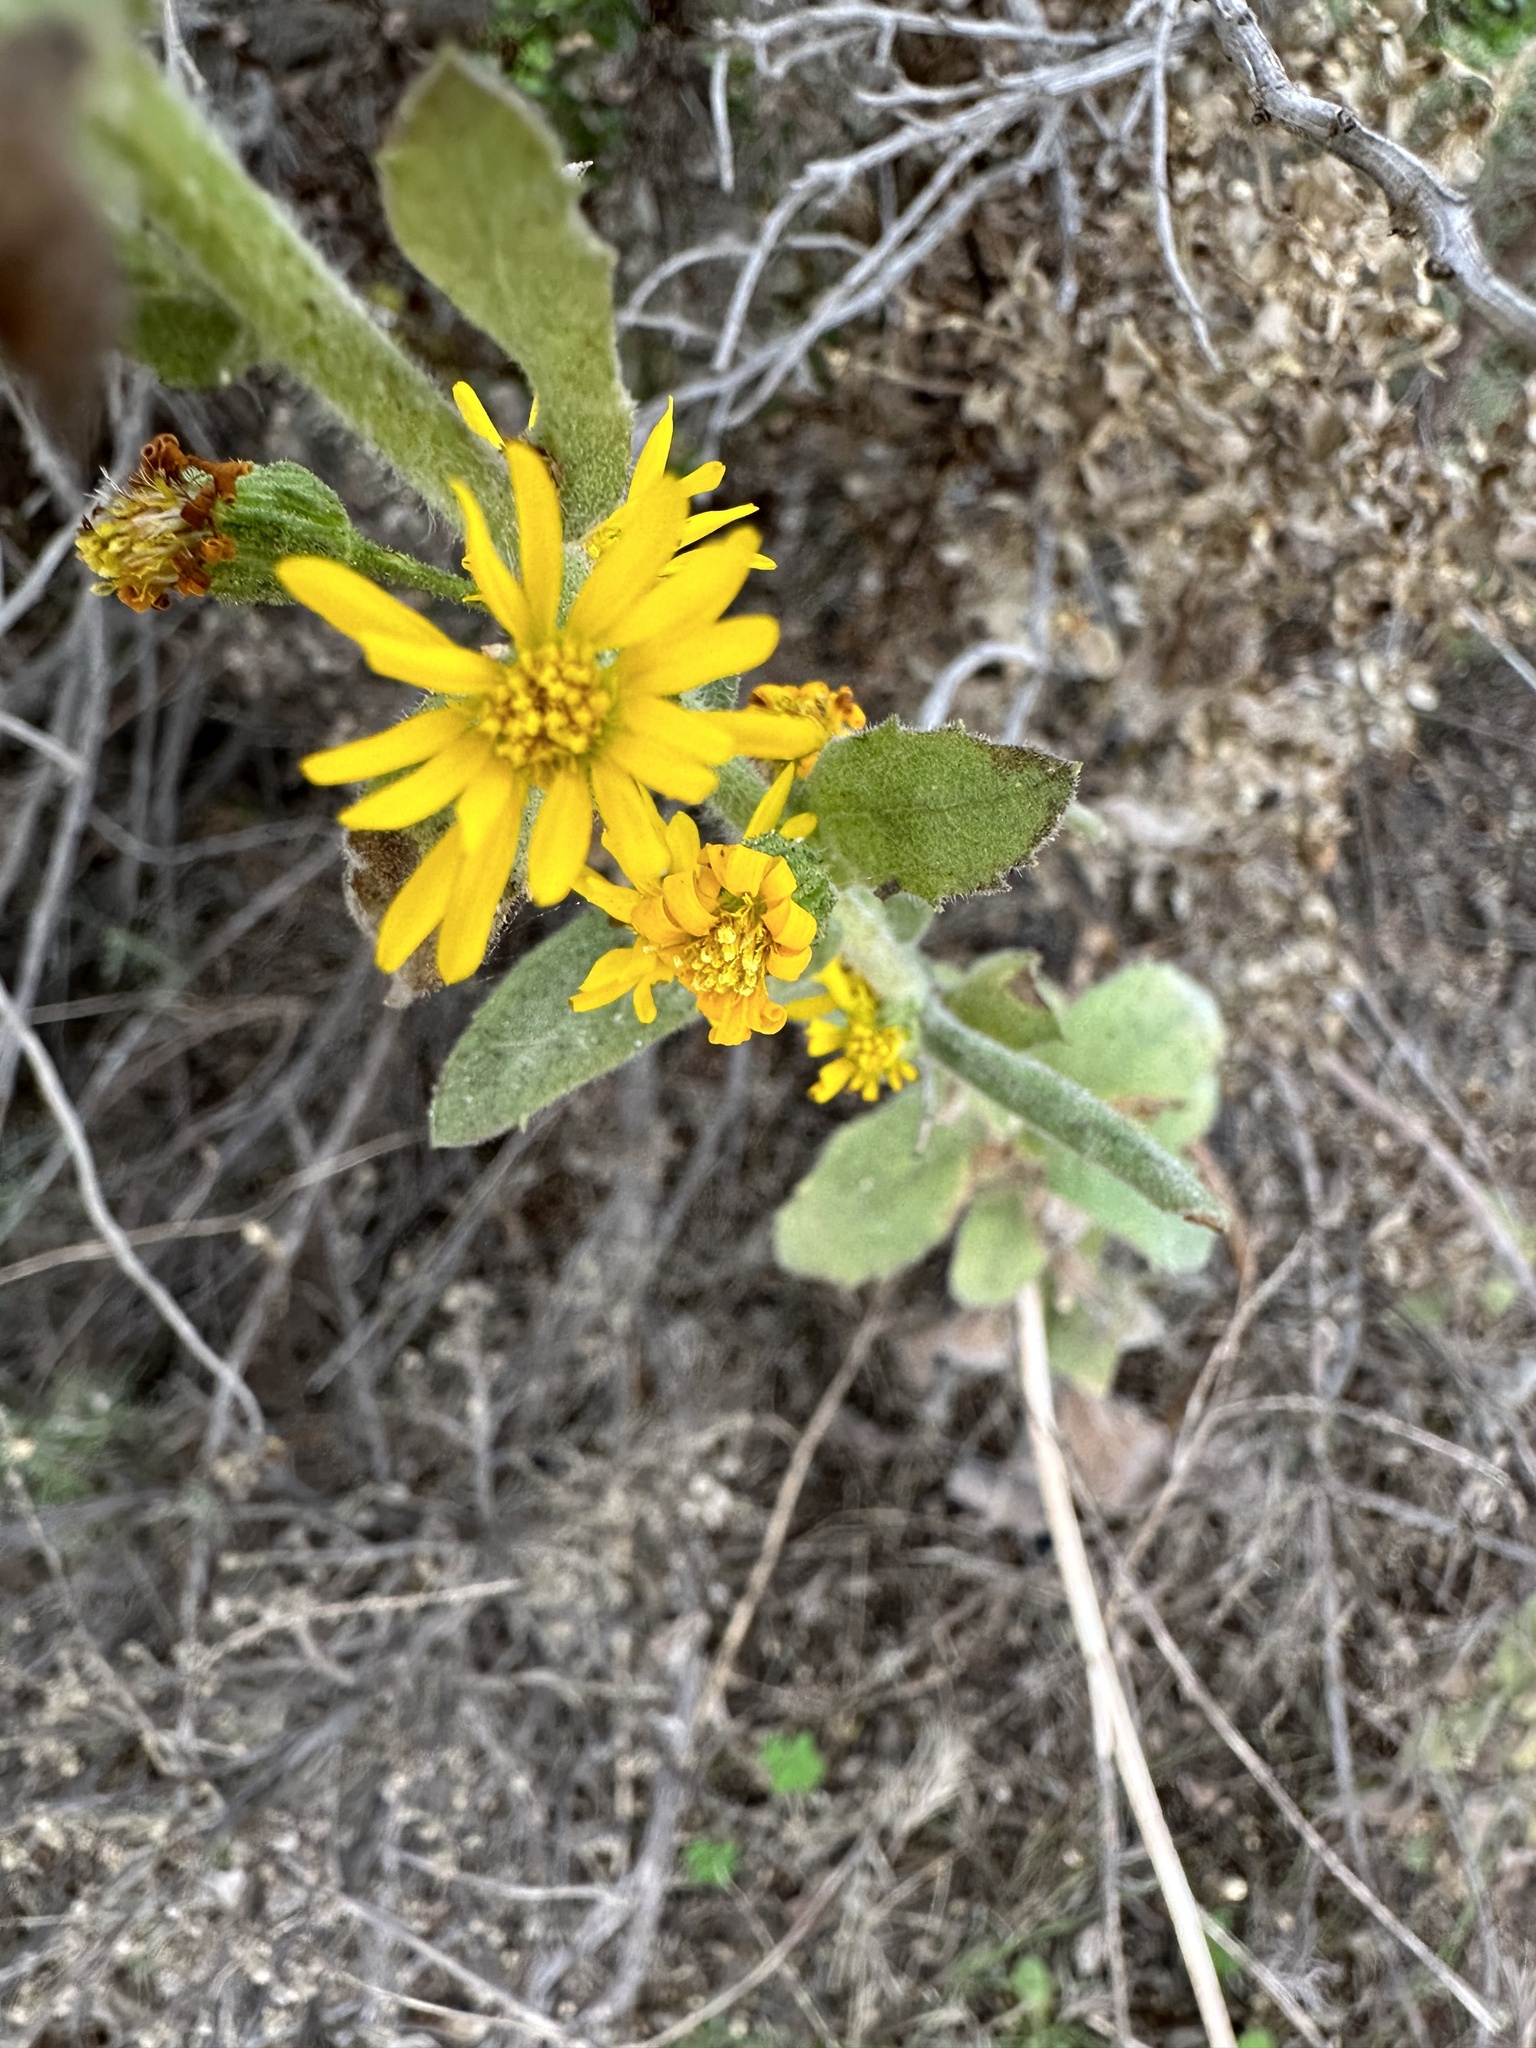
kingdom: Plantae
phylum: Tracheophyta
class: Magnoliopsida
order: Asterales
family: Asteraceae
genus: Heterotheca
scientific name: Heterotheca grandiflora
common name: Telegraphweed
